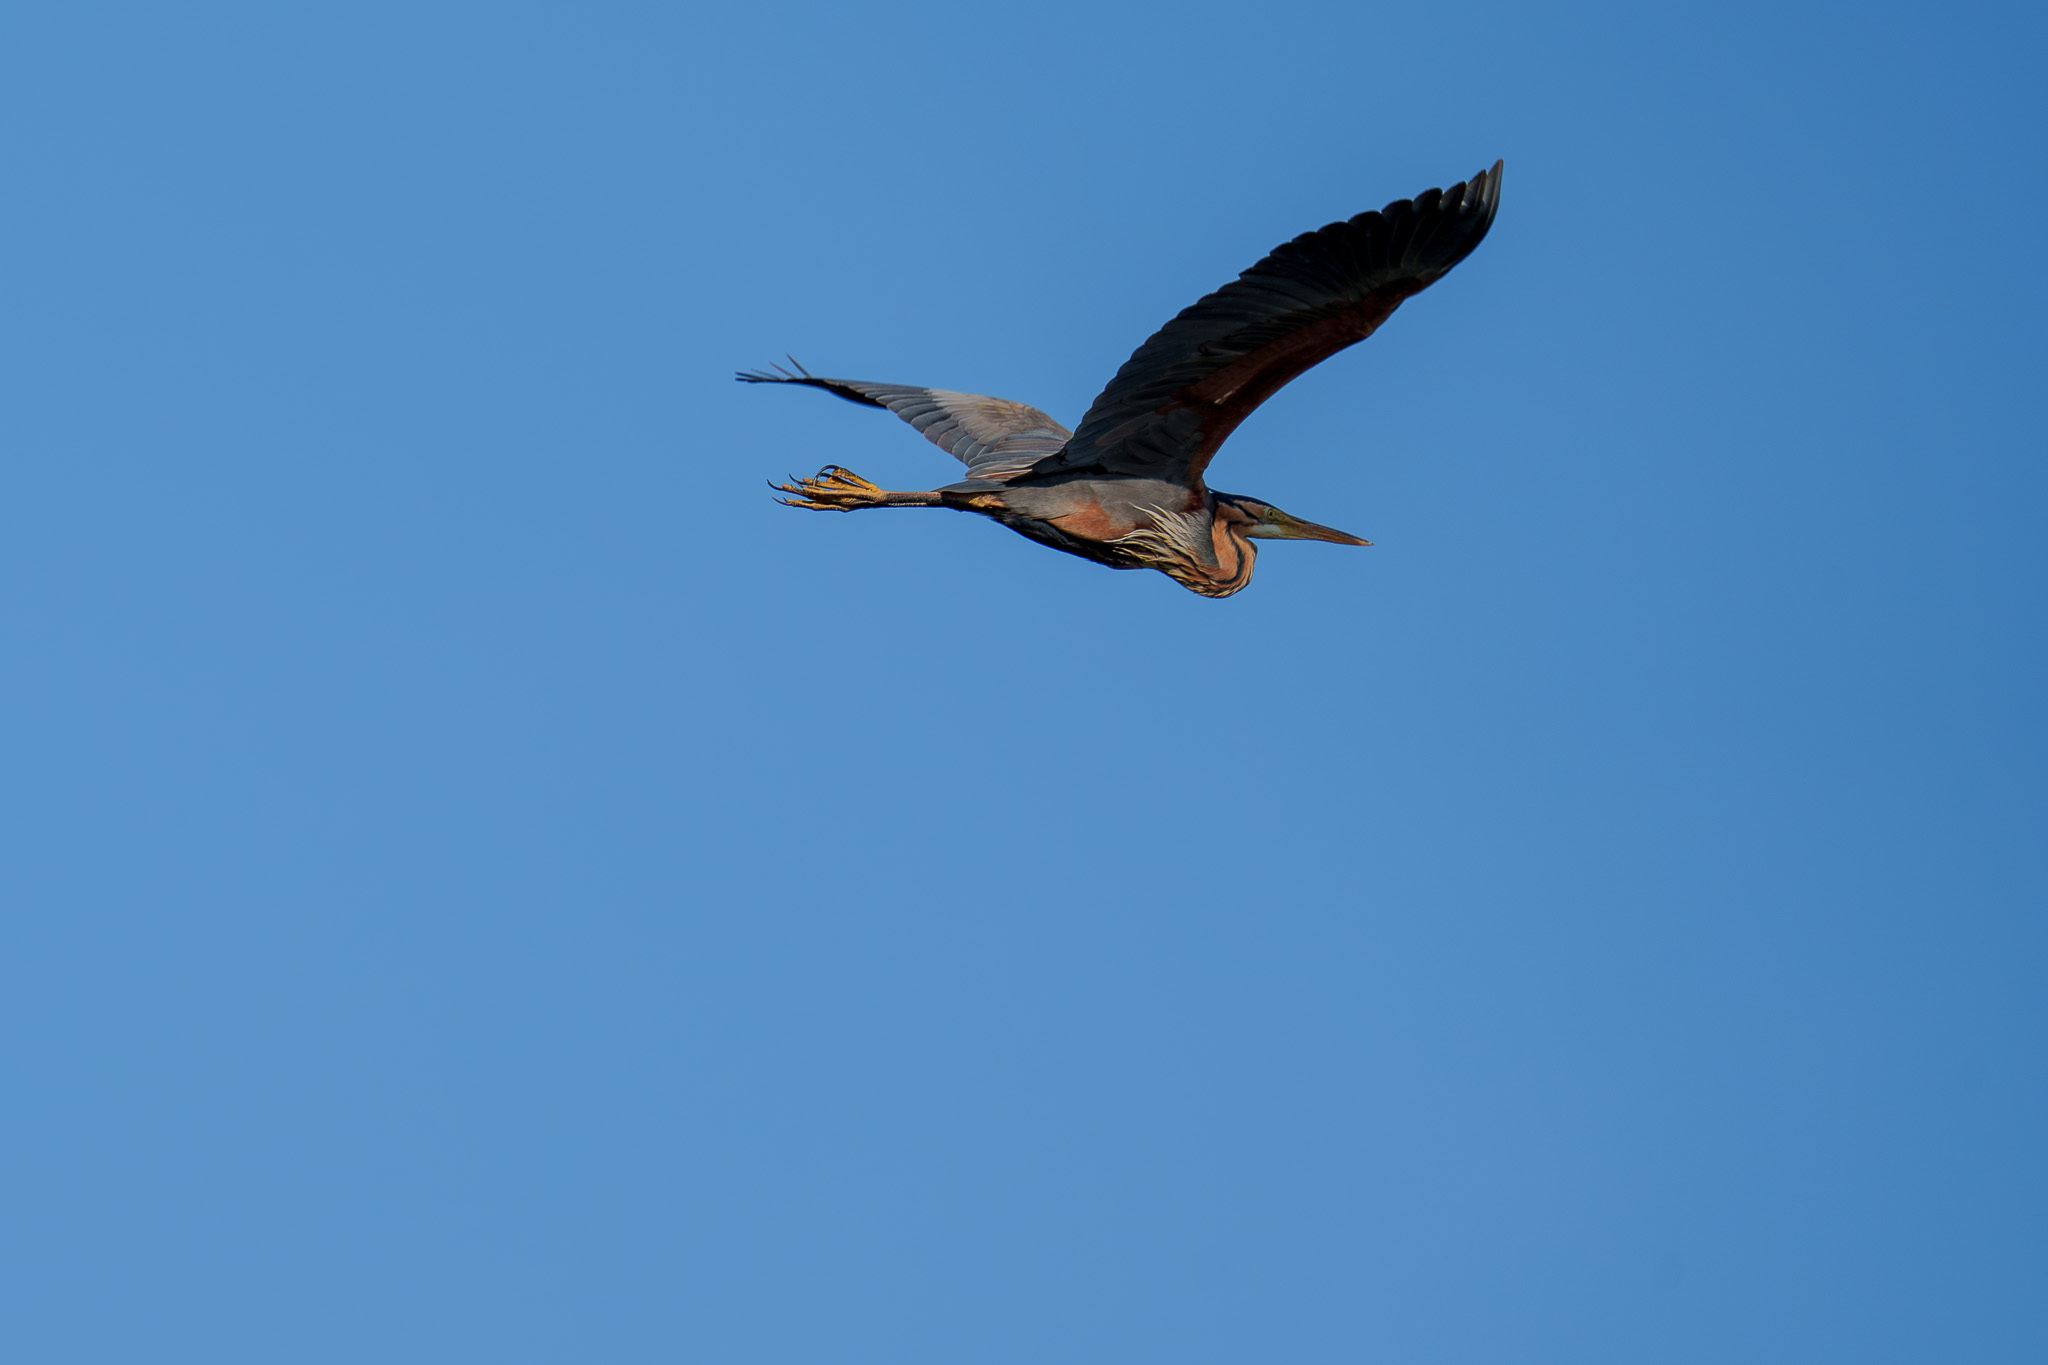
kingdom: Animalia
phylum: Chordata
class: Aves
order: Pelecaniformes
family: Ardeidae
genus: Ardea
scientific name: Ardea purpurea
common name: Purple heron
